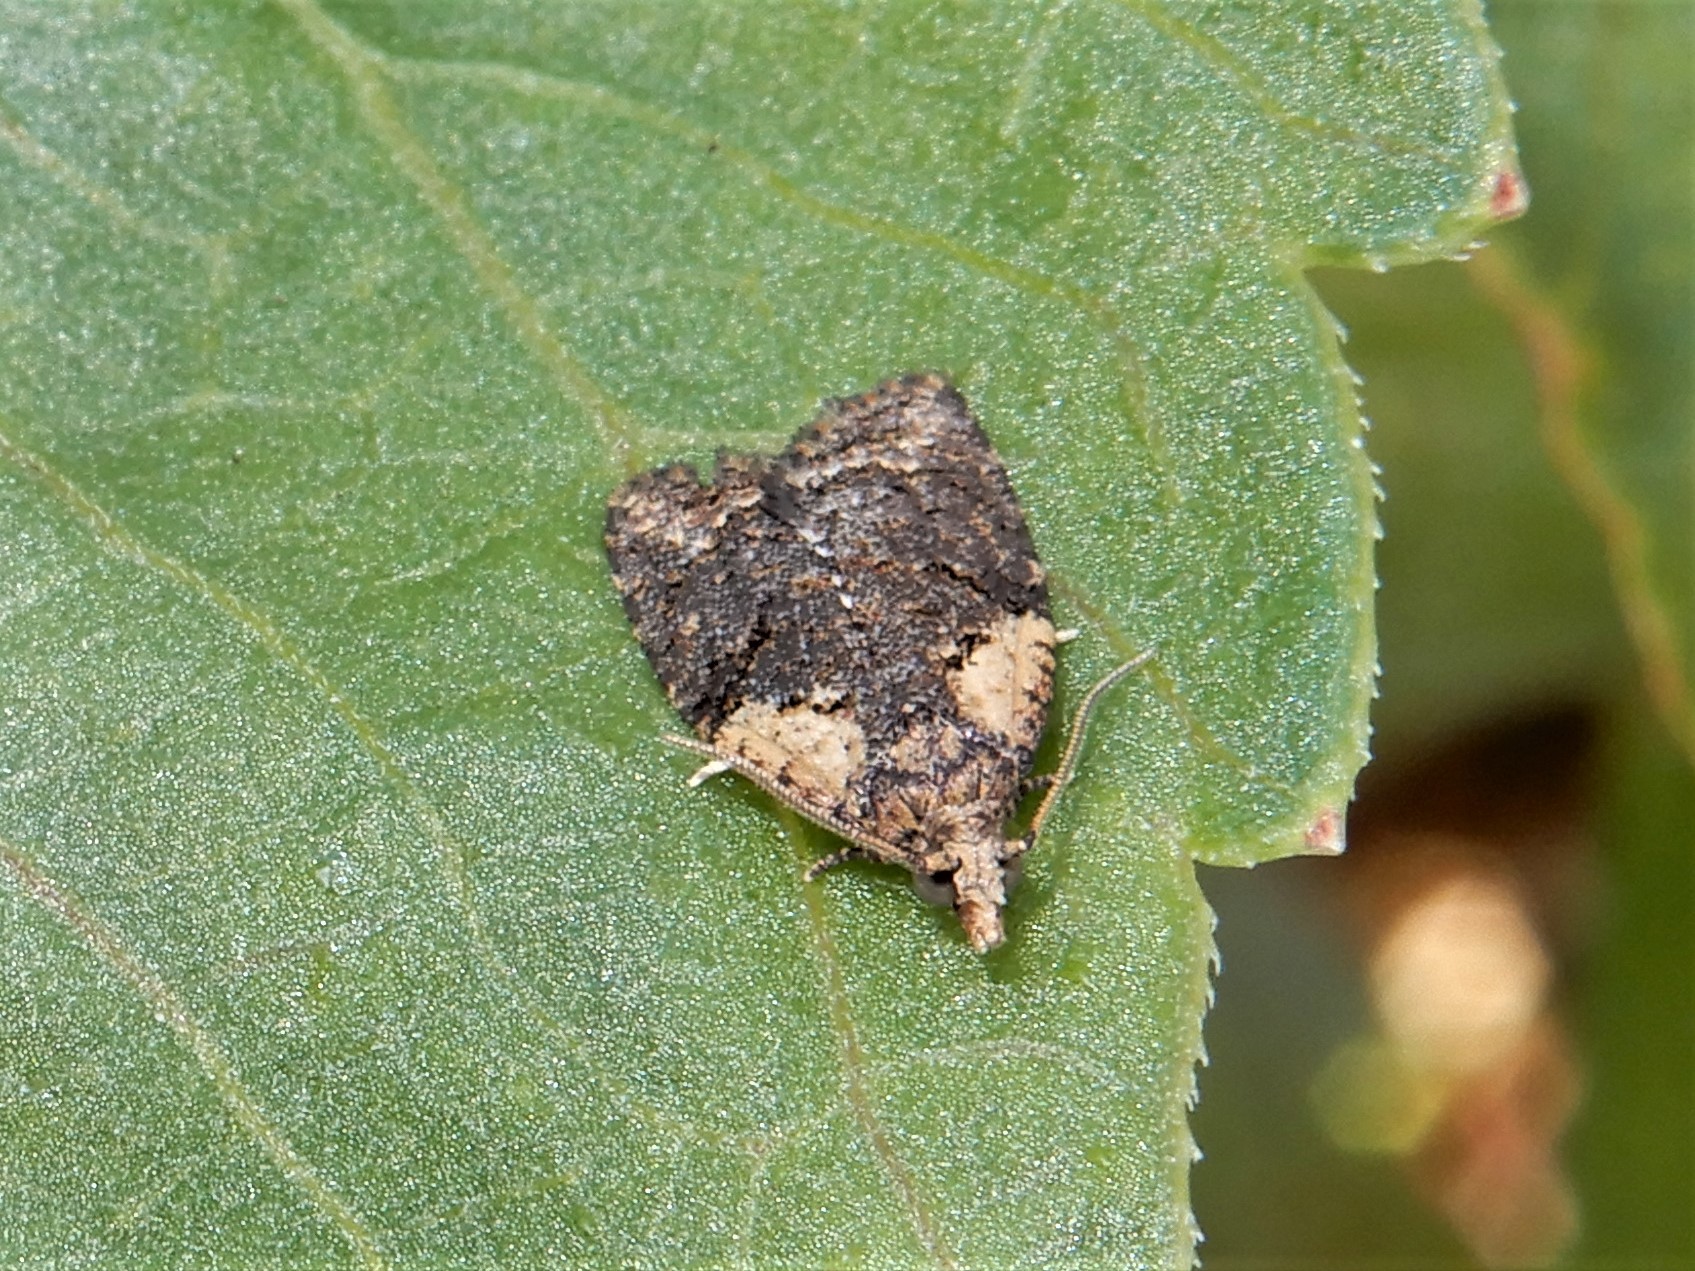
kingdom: Animalia
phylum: Arthropoda
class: Insecta
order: Lepidoptera
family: Tortricidae
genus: Capua
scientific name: Capua intractana
